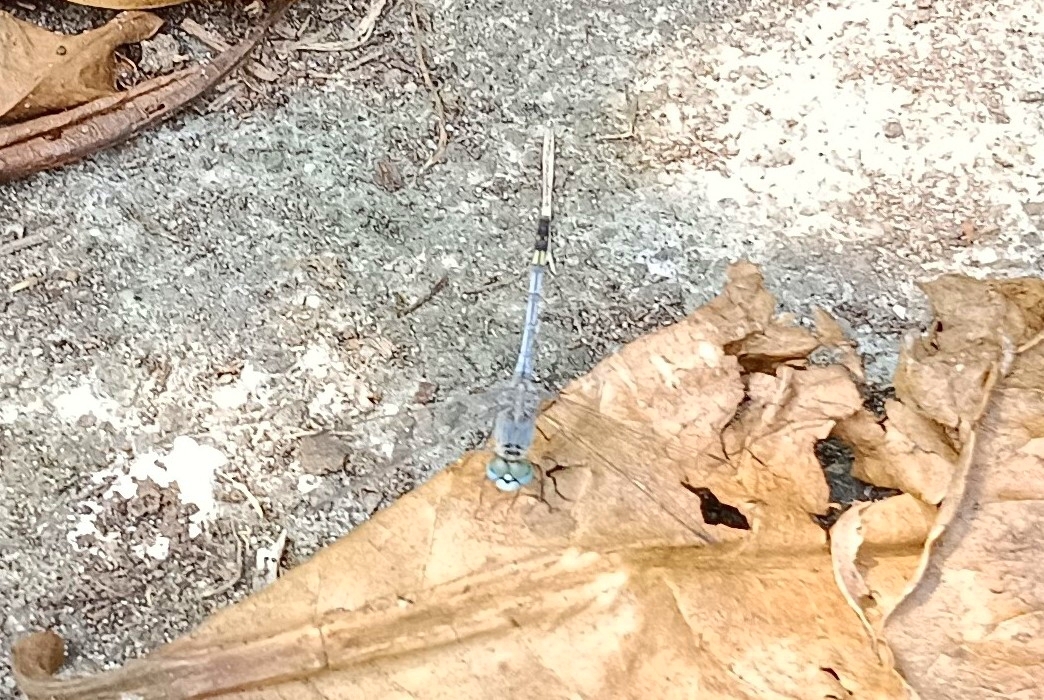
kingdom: Animalia
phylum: Arthropoda
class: Insecta
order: Odonata
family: Libellulidae
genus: Diplacodes
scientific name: Diplacodes trivialis
